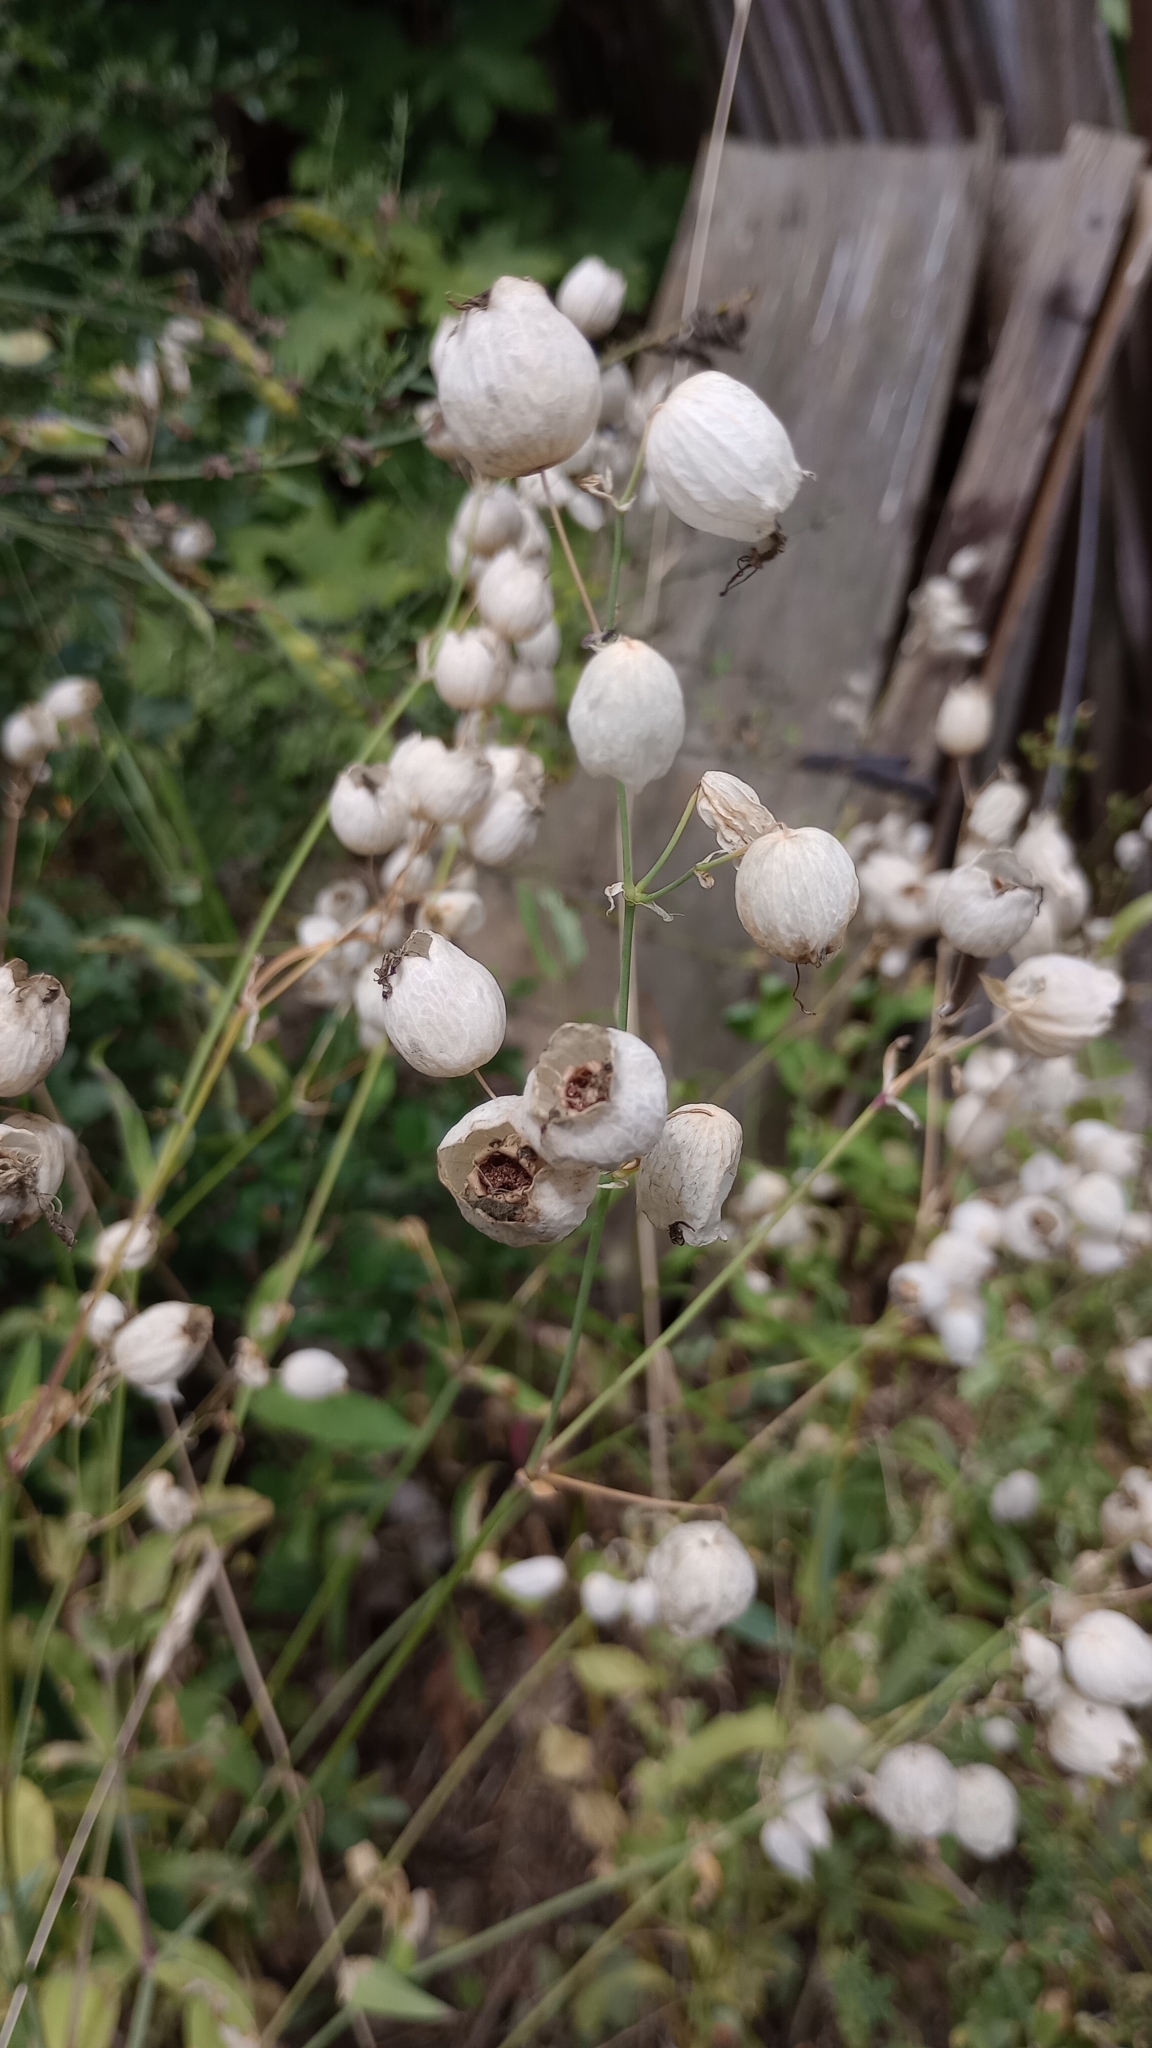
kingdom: Plantae
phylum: Tracheophyta
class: Magnoliopsida
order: Caryophyllales
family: Caryophyllaceae
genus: Silene
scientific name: Silene vulgaris
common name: Bladder campion
